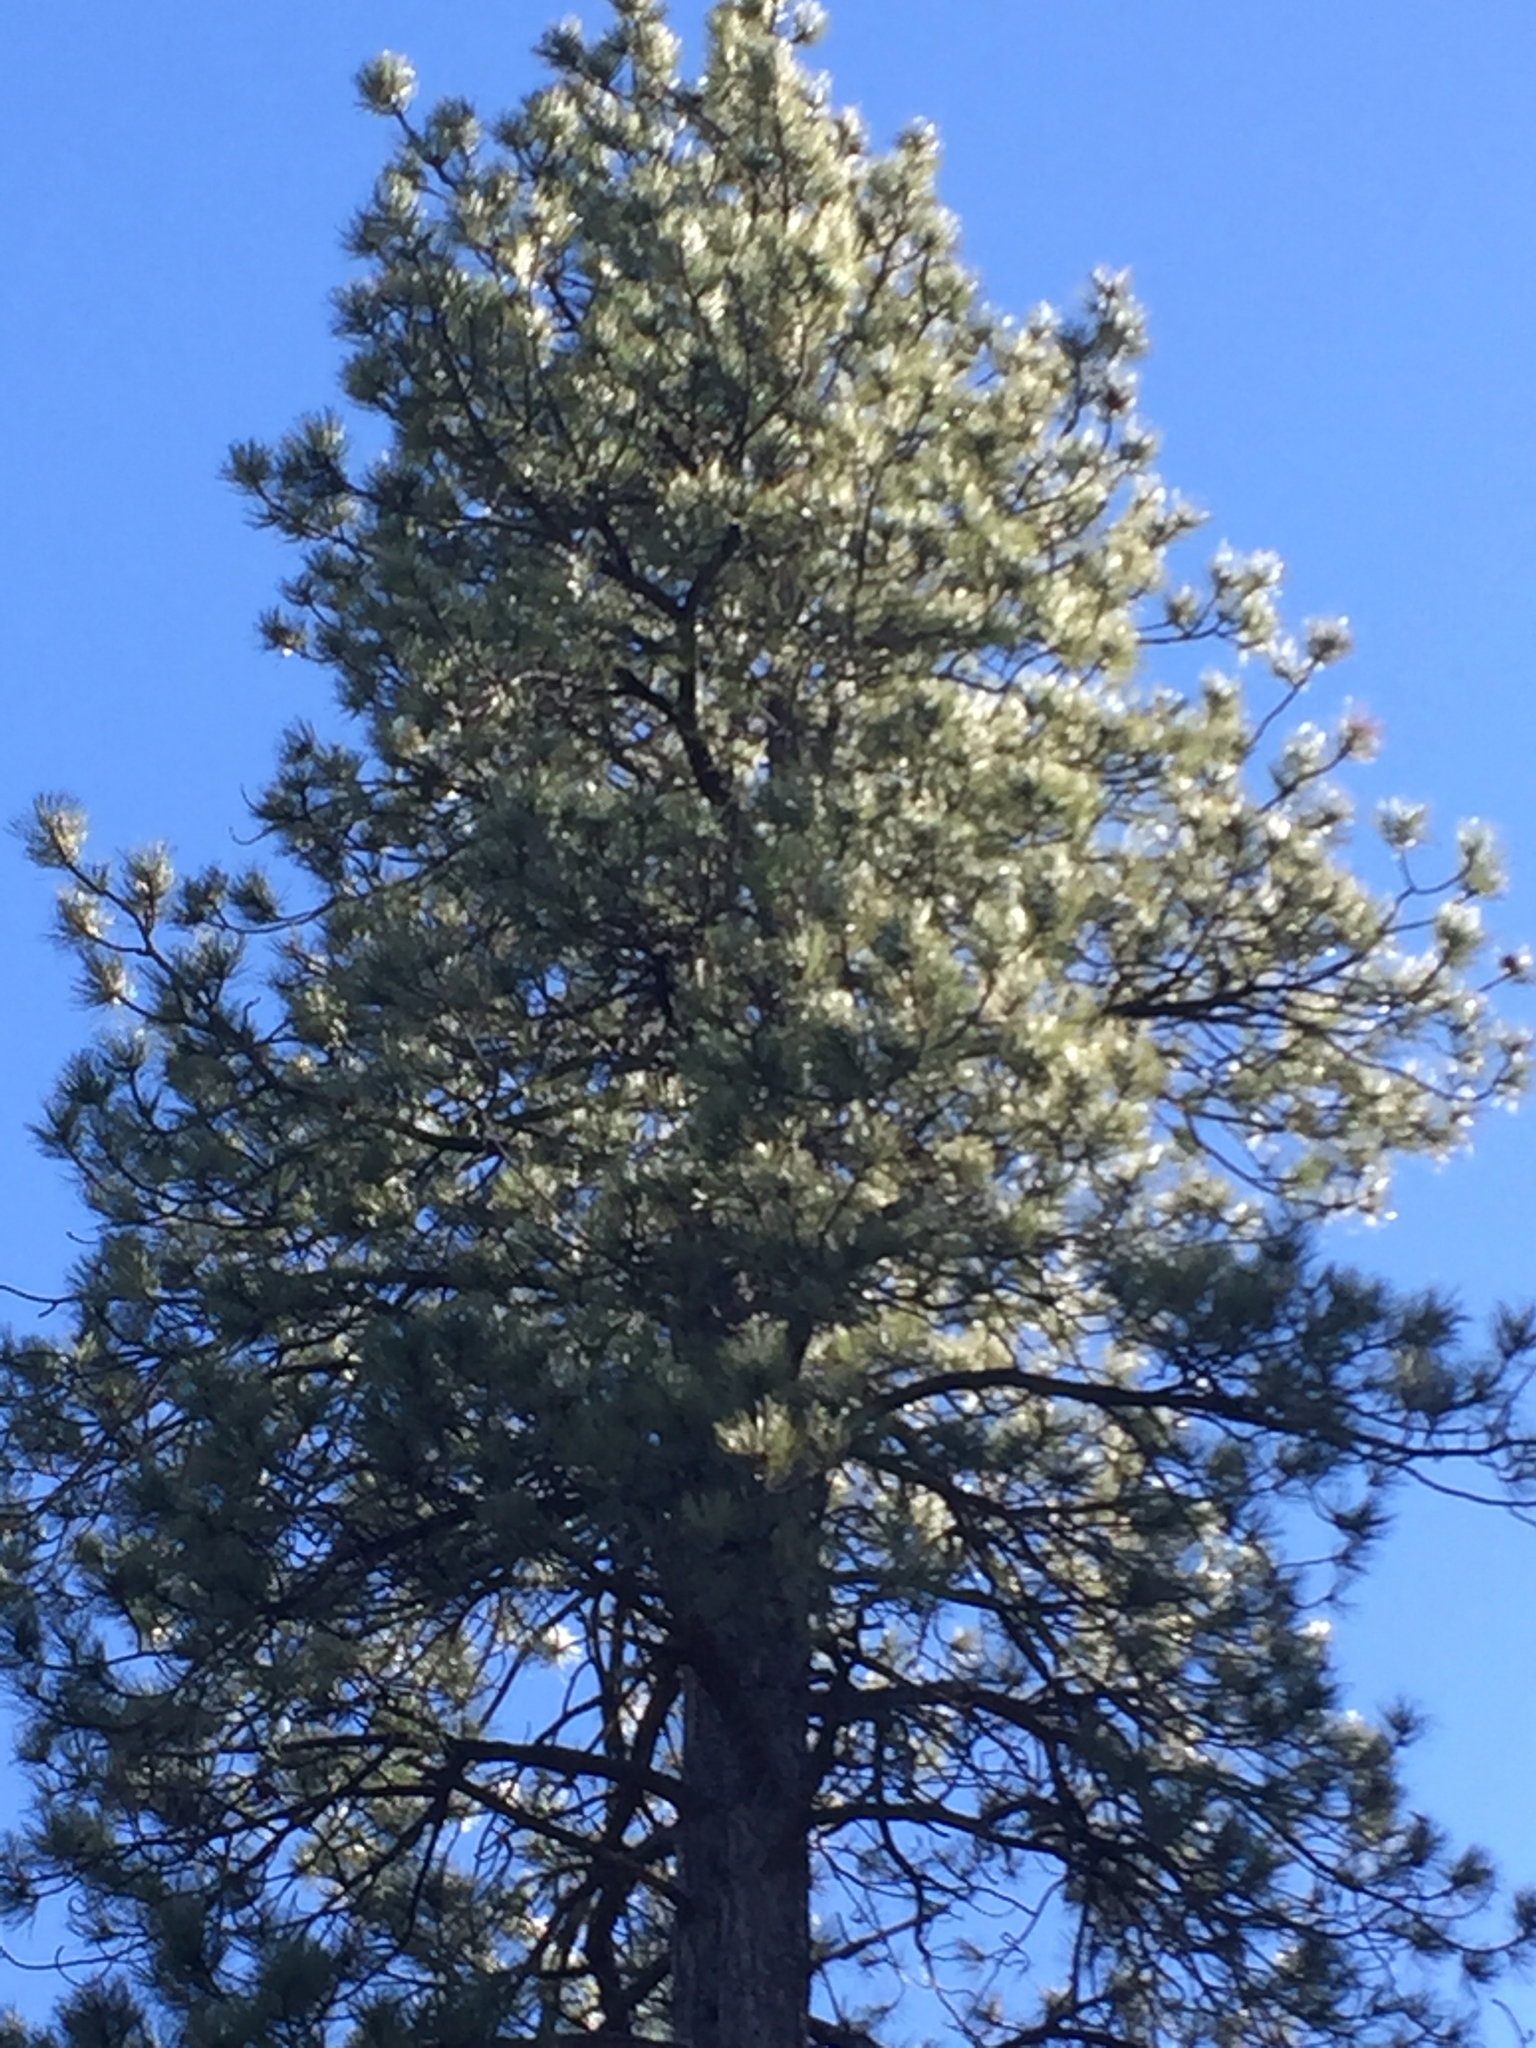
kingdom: Plantae
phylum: Tracheophyta
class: Pinopsida
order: Pinales
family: Pinaceae
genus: Pinus
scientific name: Pinus ponderosa
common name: Western yellow-pine
